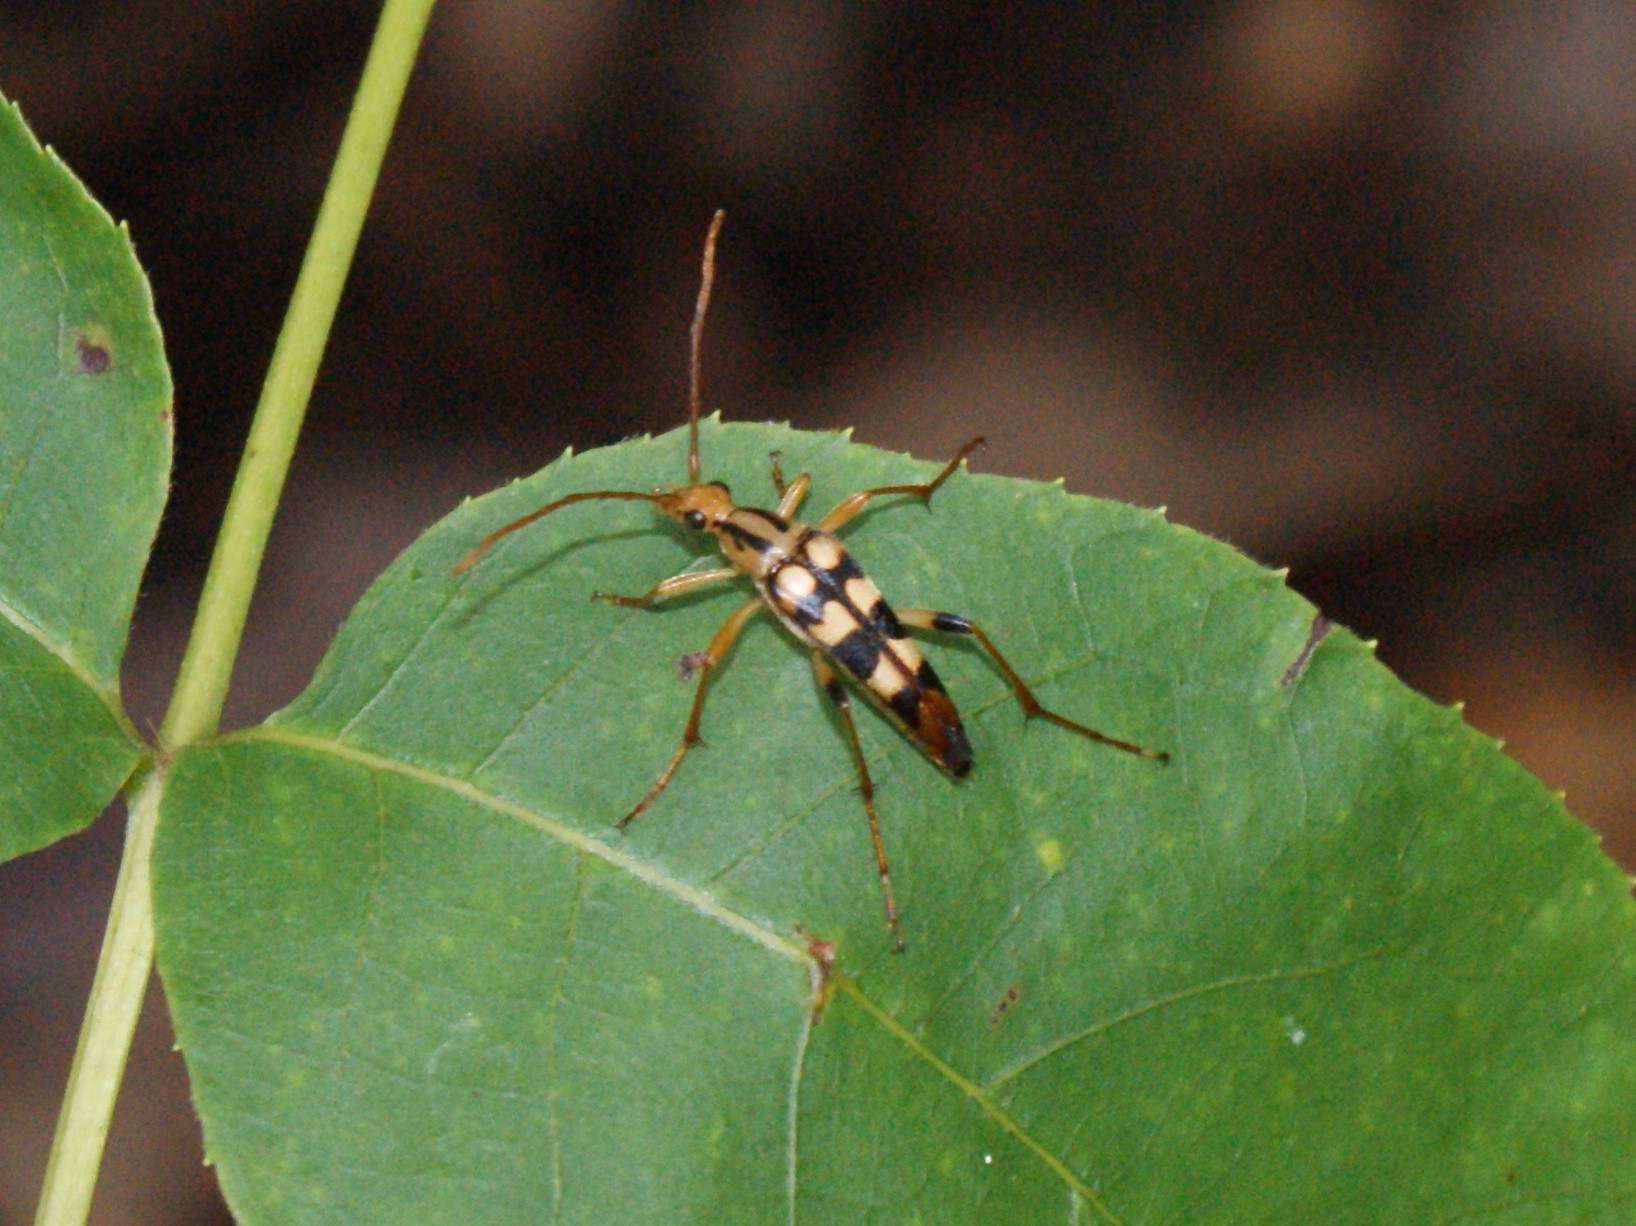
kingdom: Animalia
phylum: Arthropoda
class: Insecta
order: Coleoptera
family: Cerambycidae
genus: Strangalia
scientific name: Strangalia luteicornis
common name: Yellow-horned flower longhorn beetle
